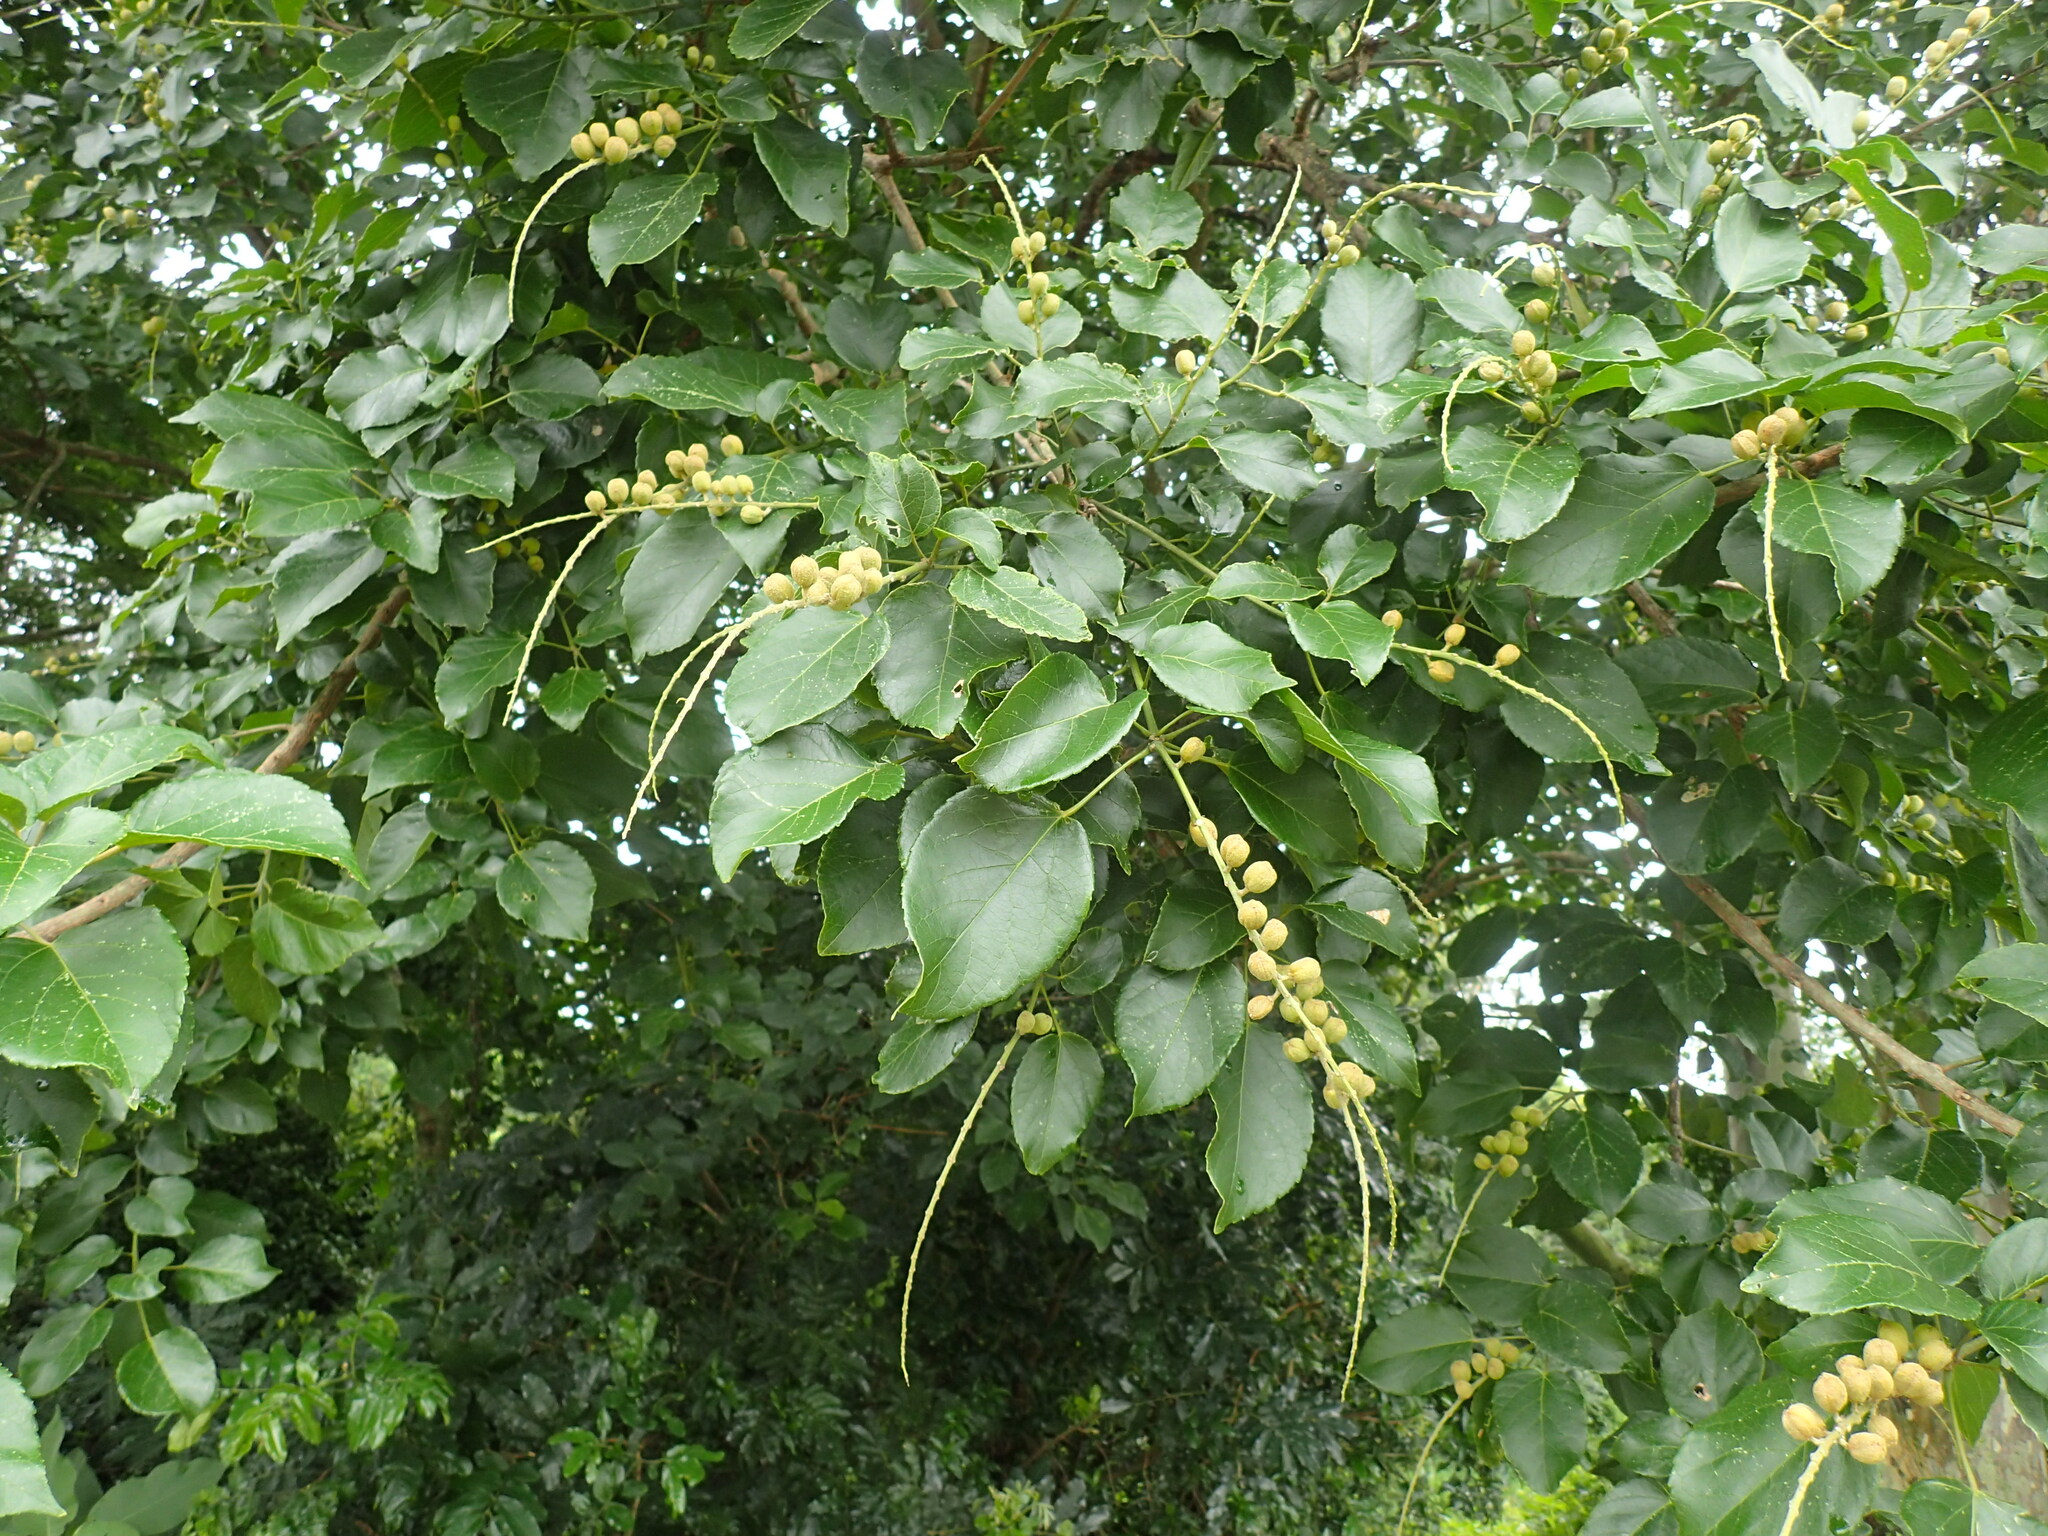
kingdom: Plantae
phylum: Tracheophyta
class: Magnoliopsida
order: Malpighiales
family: Euphorbiaceae
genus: Croton
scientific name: Croton sylvaticus
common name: Forest croton
